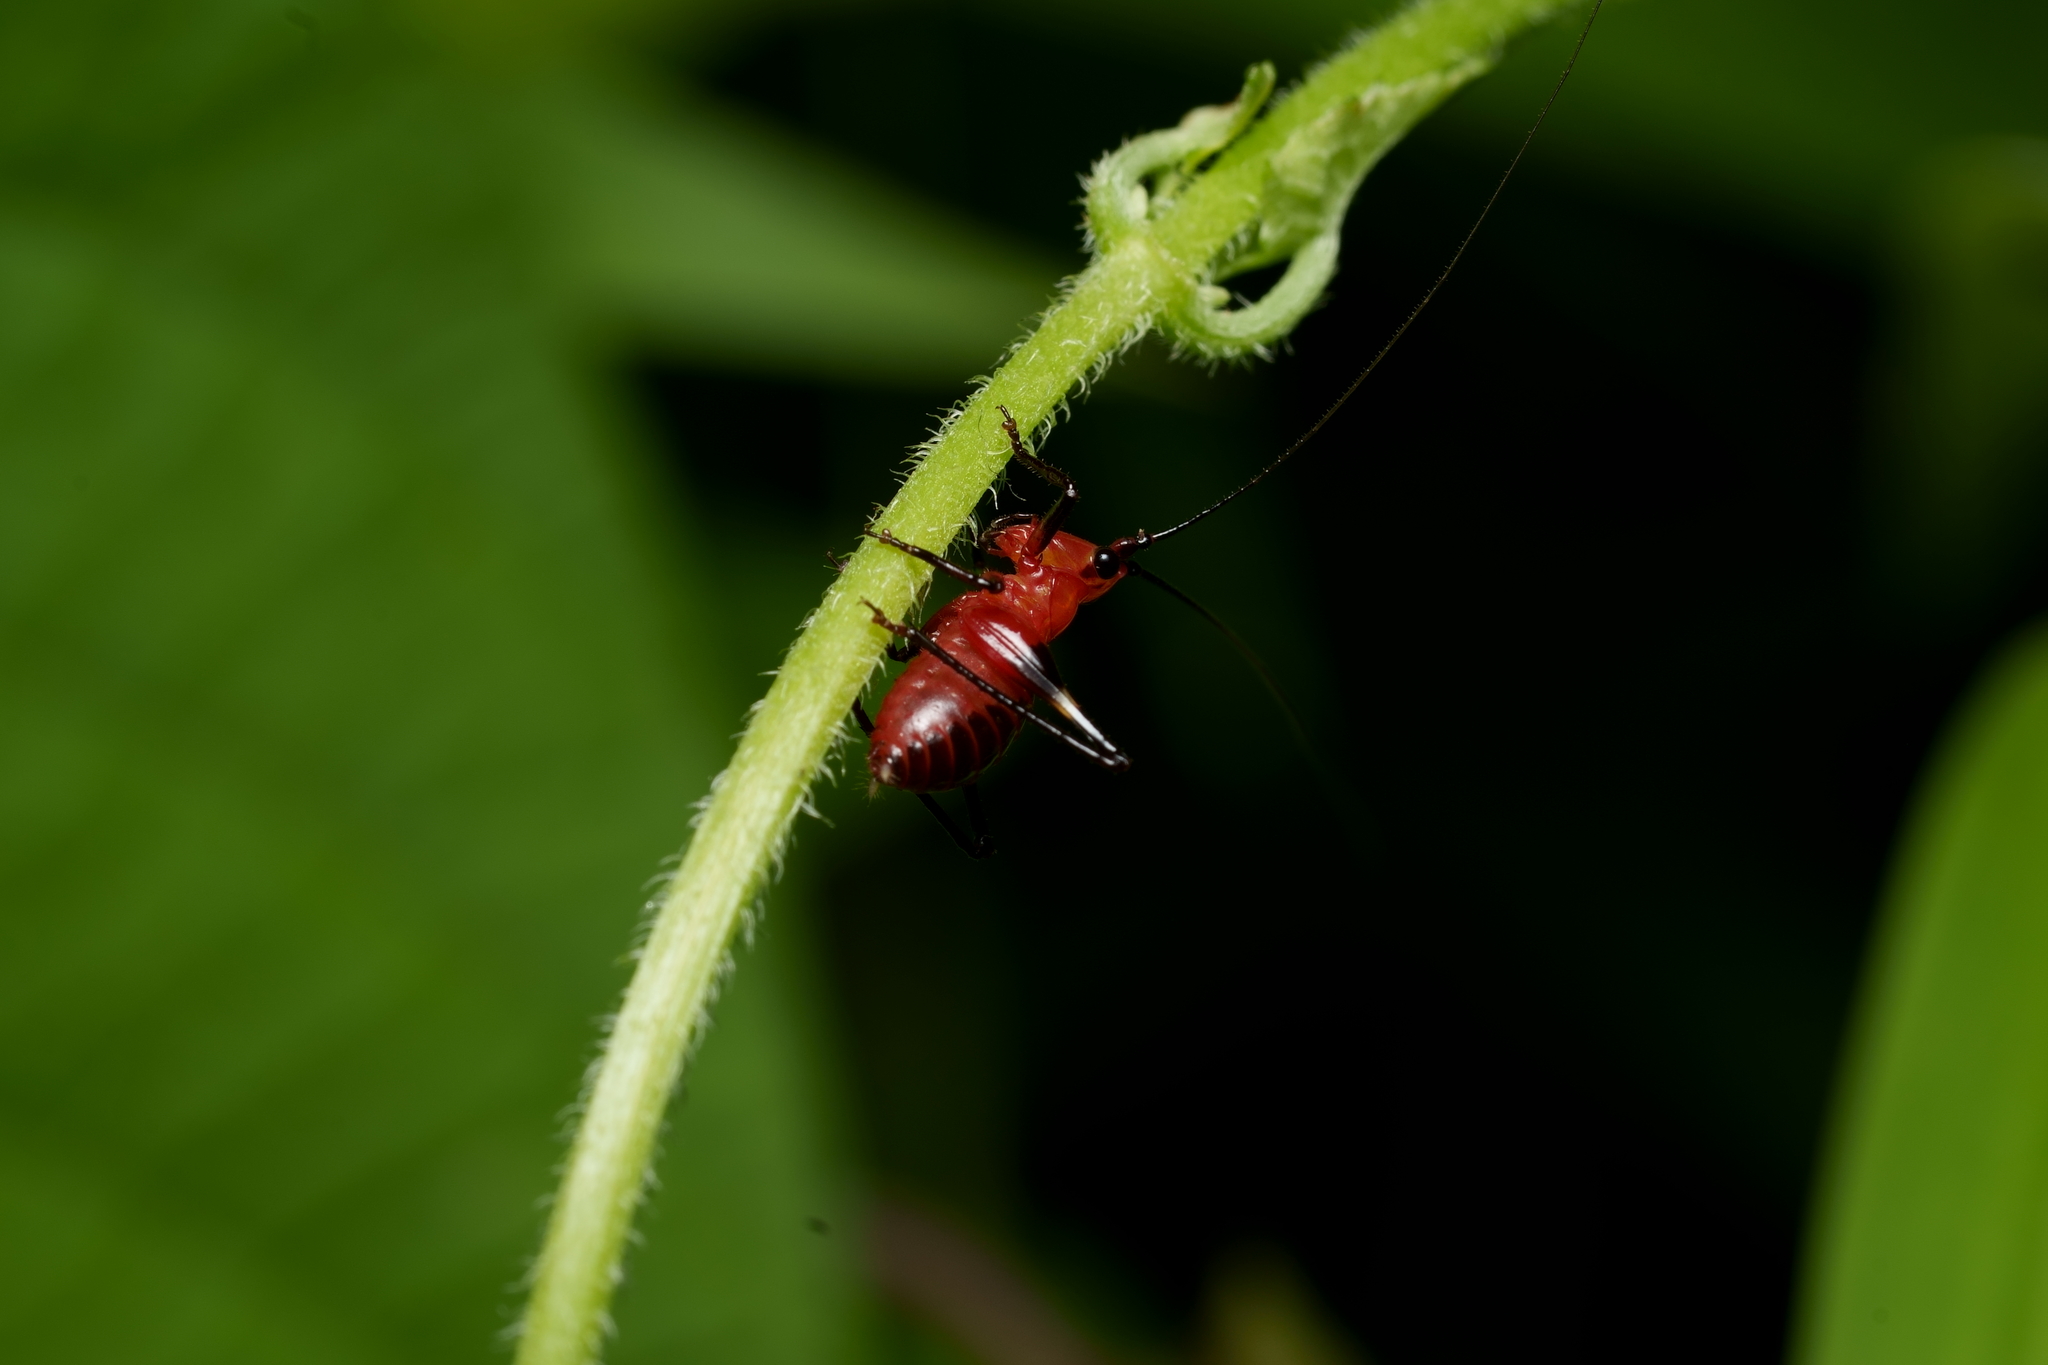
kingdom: Animalia
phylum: Arthropoda
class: Insecta
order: Orthoptera
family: Tettigoniidae
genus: Conocephalus
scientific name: Conocephalus melaenus
